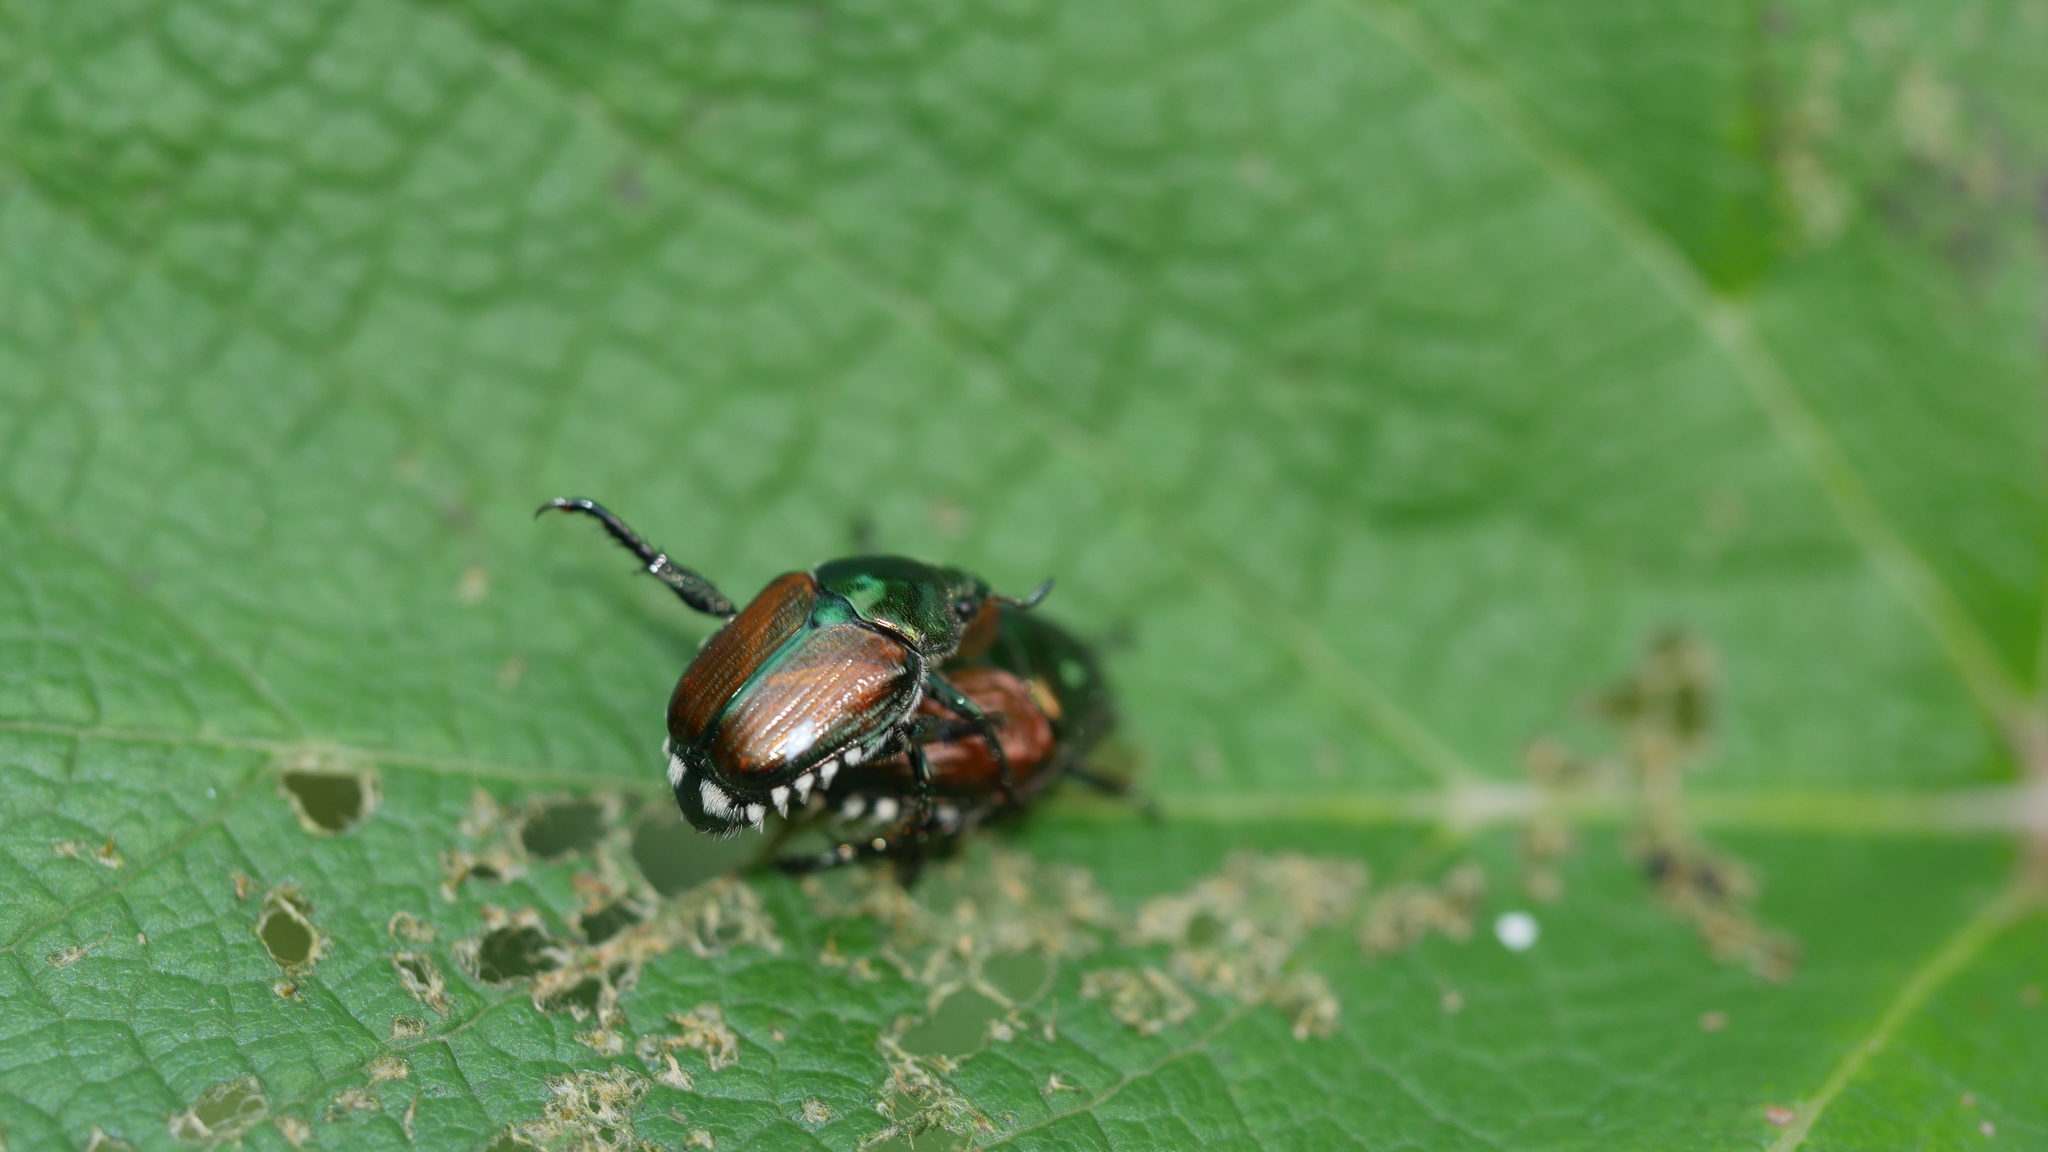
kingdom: Animalia
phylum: Arthropoda
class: Insecta
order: Coleoptera
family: Scarabaeidae
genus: Popillia
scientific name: Popillia japonica
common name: Japanese beetle
